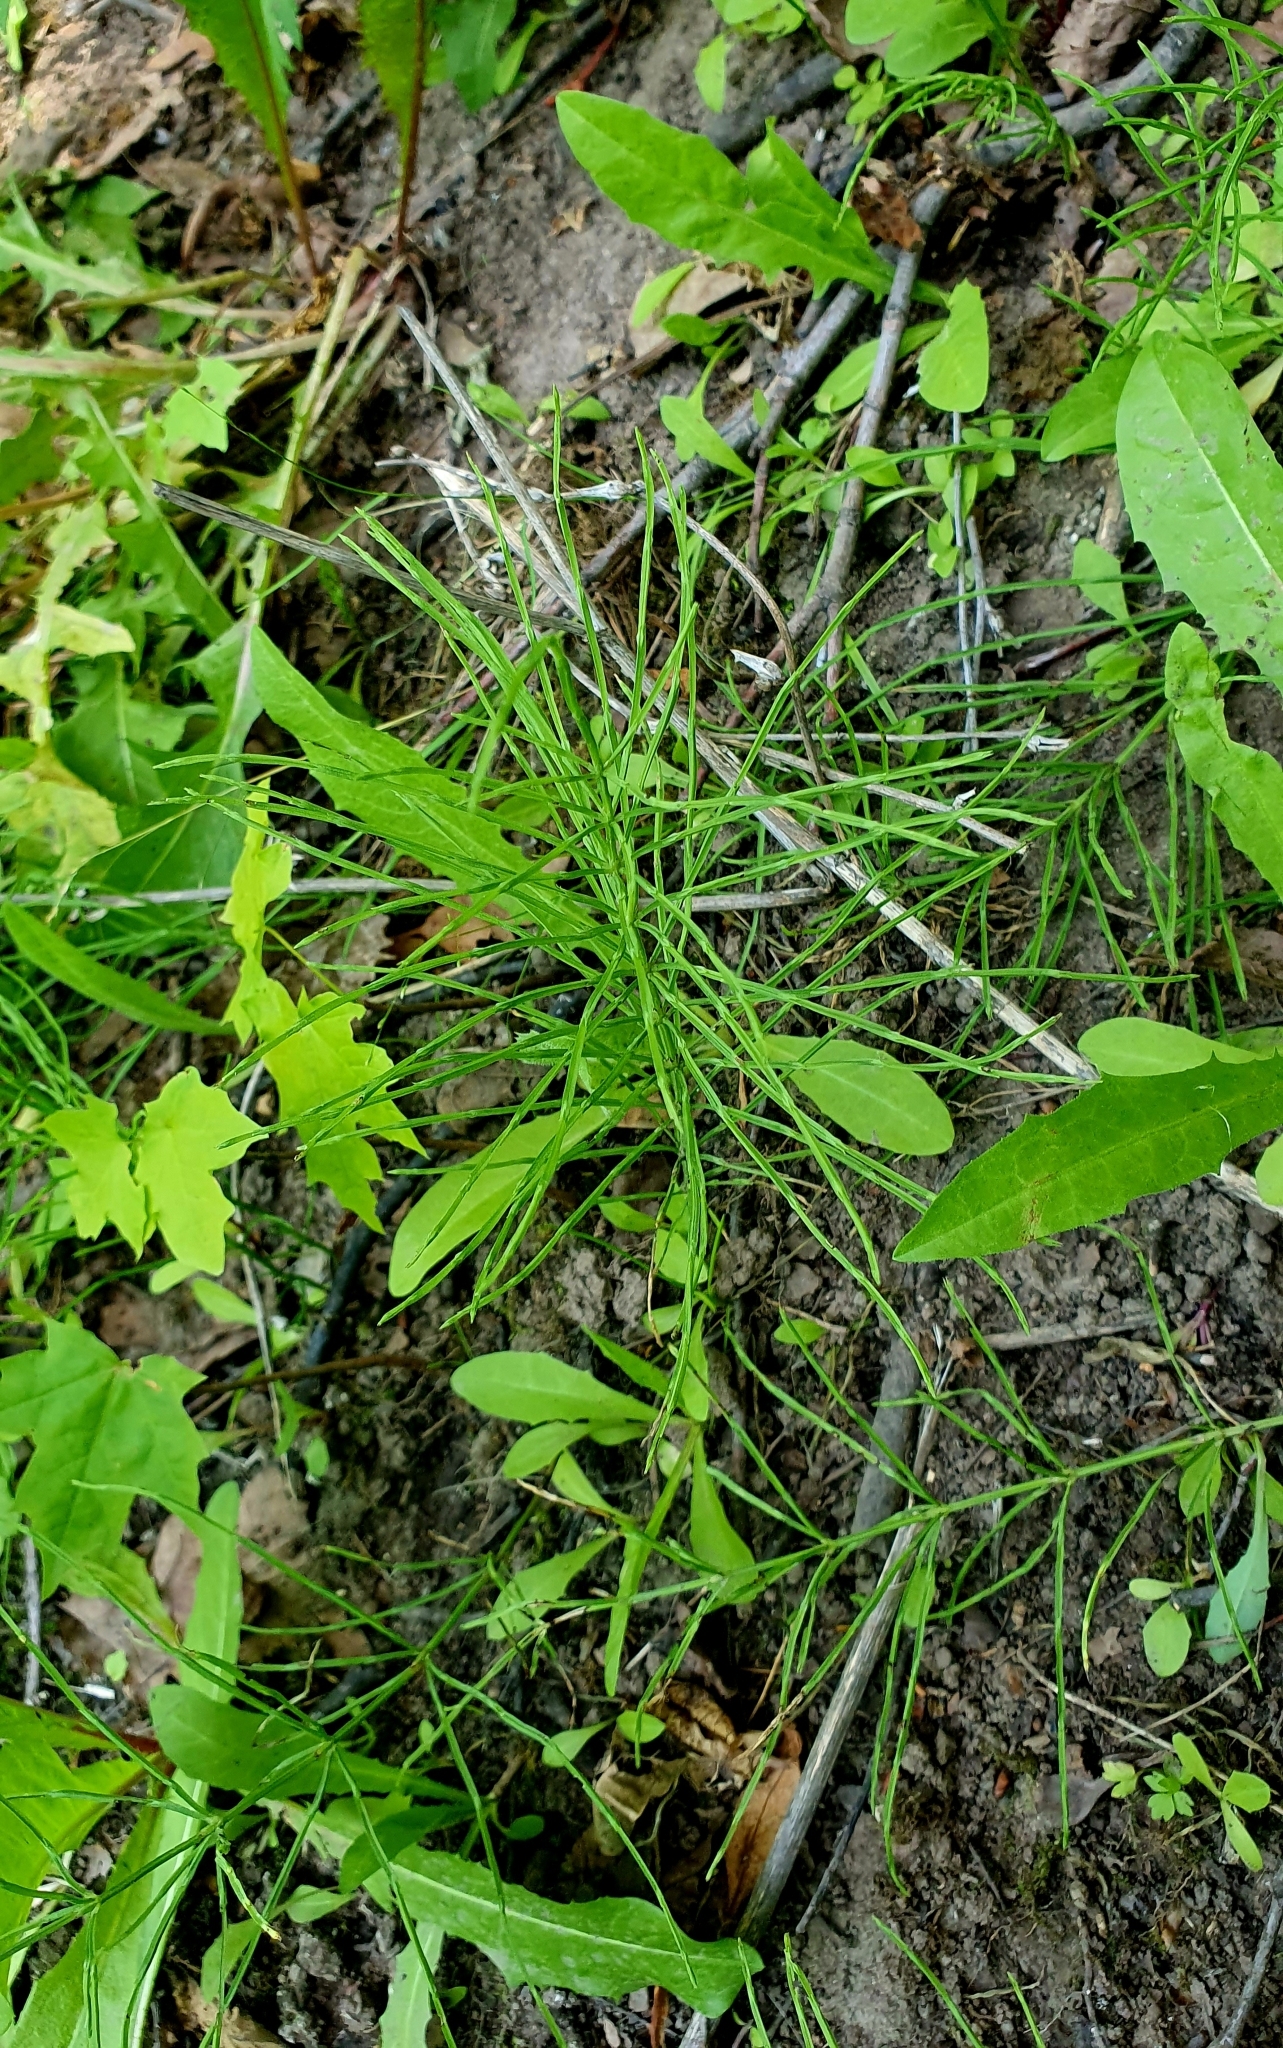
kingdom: Plantae
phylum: Tracheophyta
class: Polypodiopsida
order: Equisetales
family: Equisetaceae
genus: Equisetum
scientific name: Equisetum arvense
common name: Field horsetail
